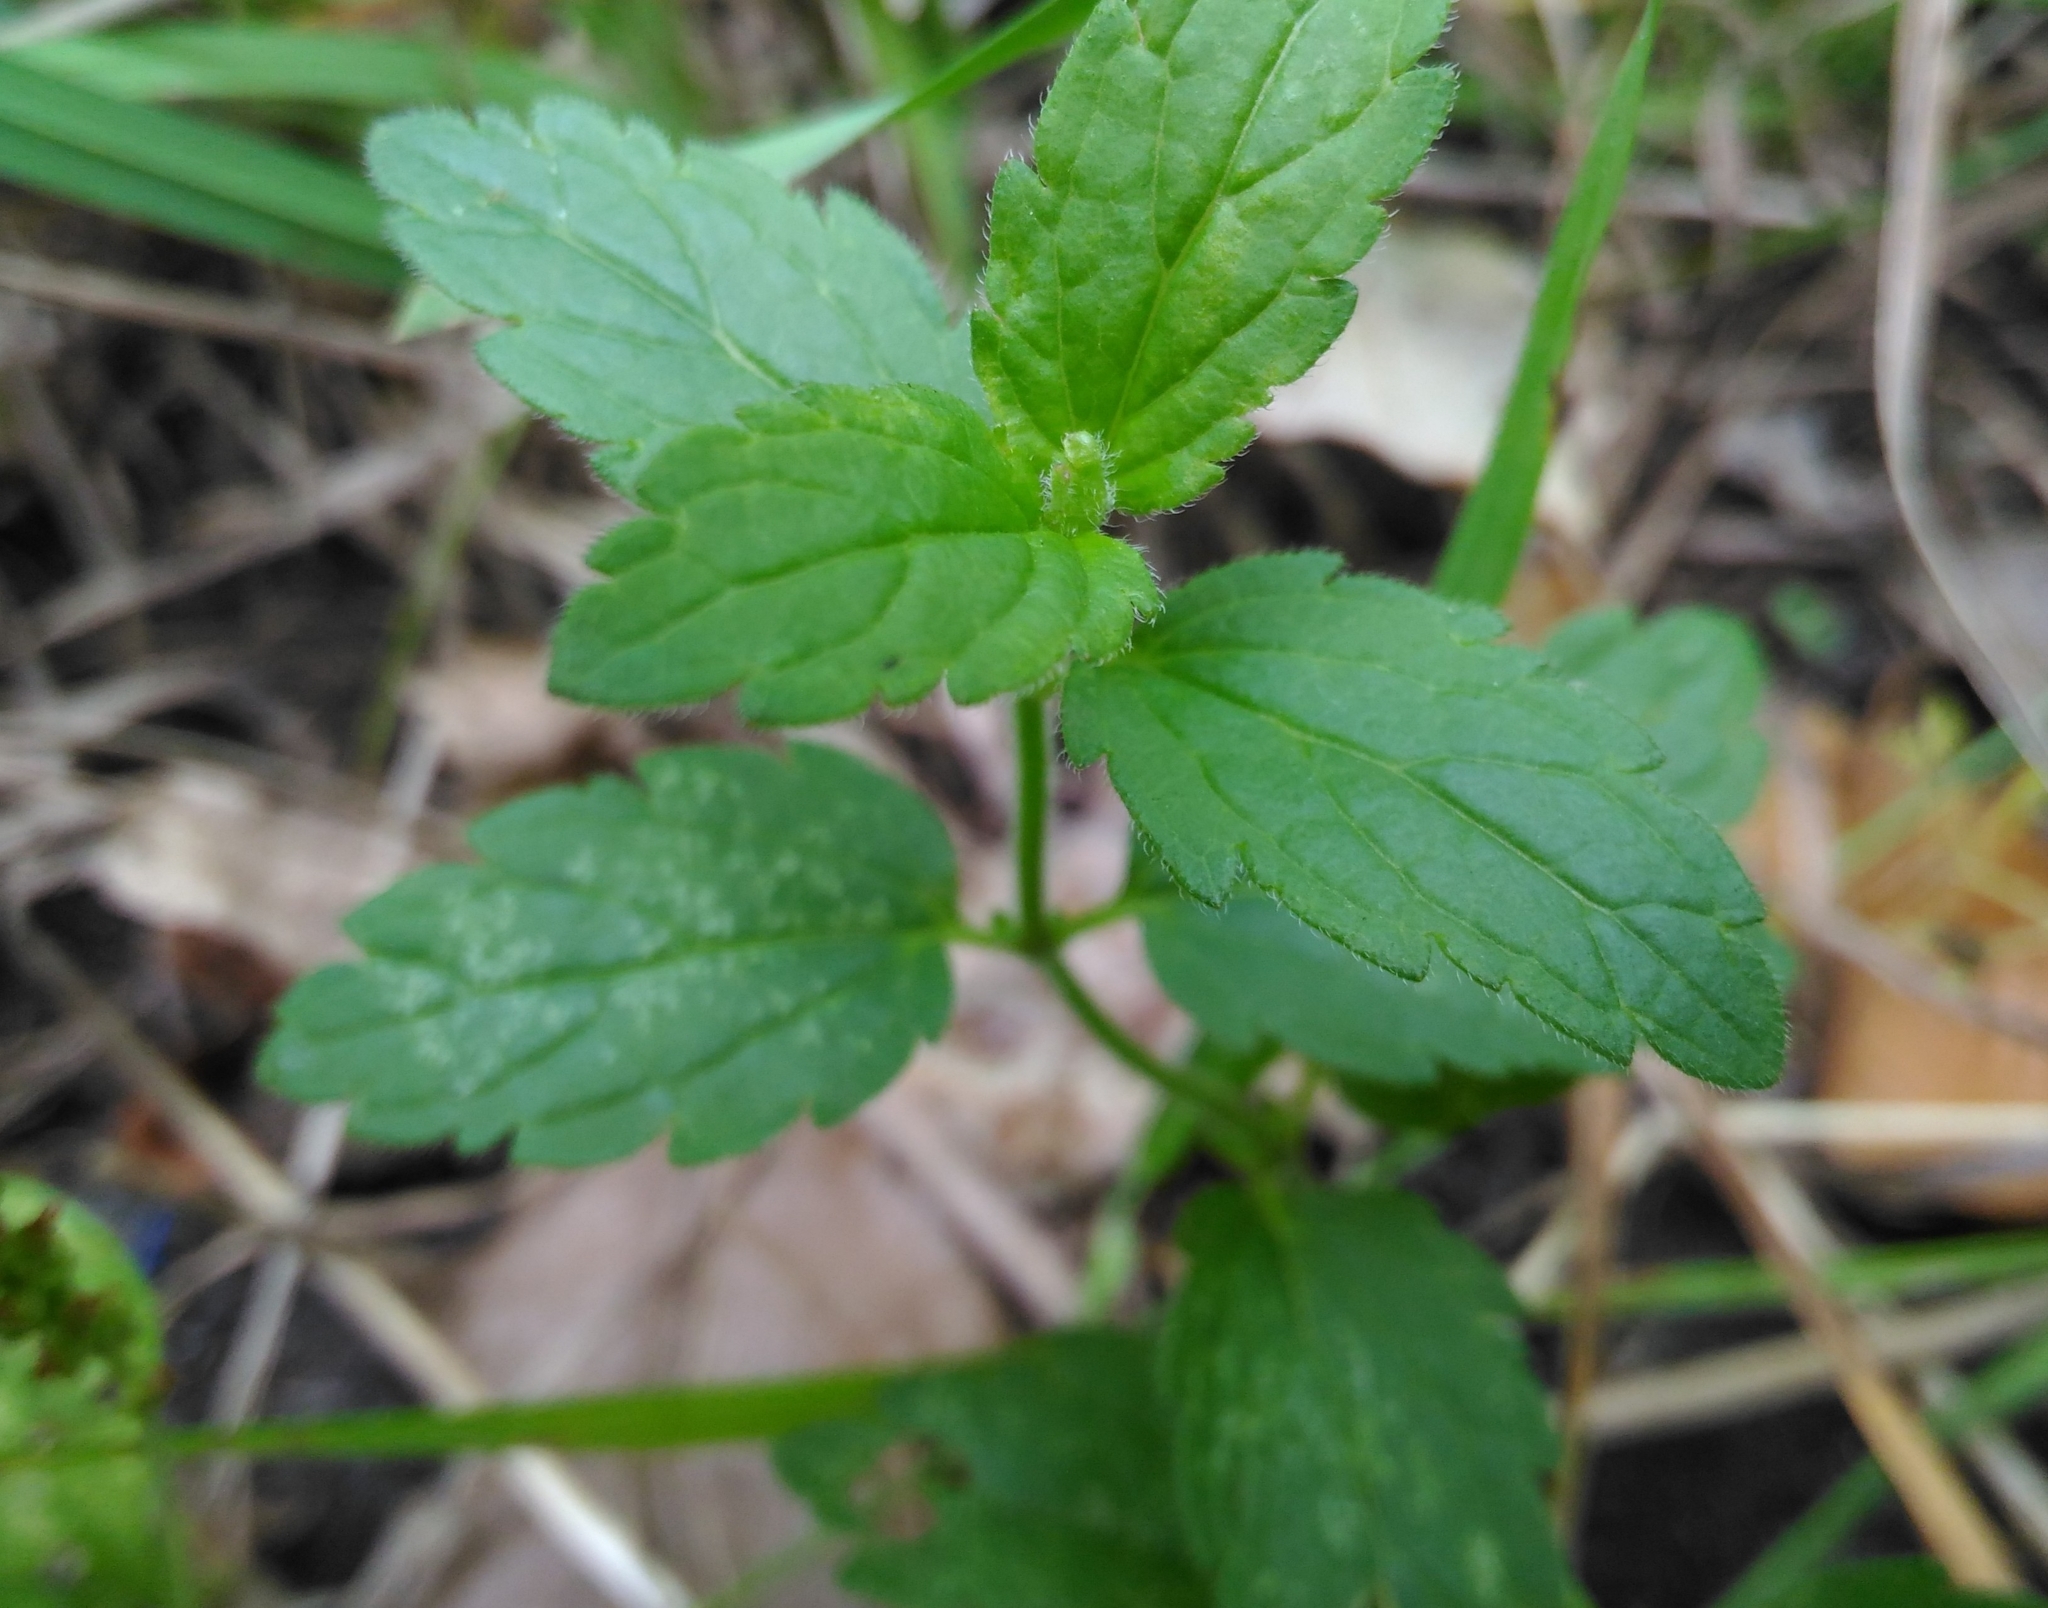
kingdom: Plantae
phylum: Tracheophyta
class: Magnoliopsida
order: Lamiales
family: Plantaginaceae
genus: Veronica
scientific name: Veronica chamaedrys
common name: Germander speedwell
